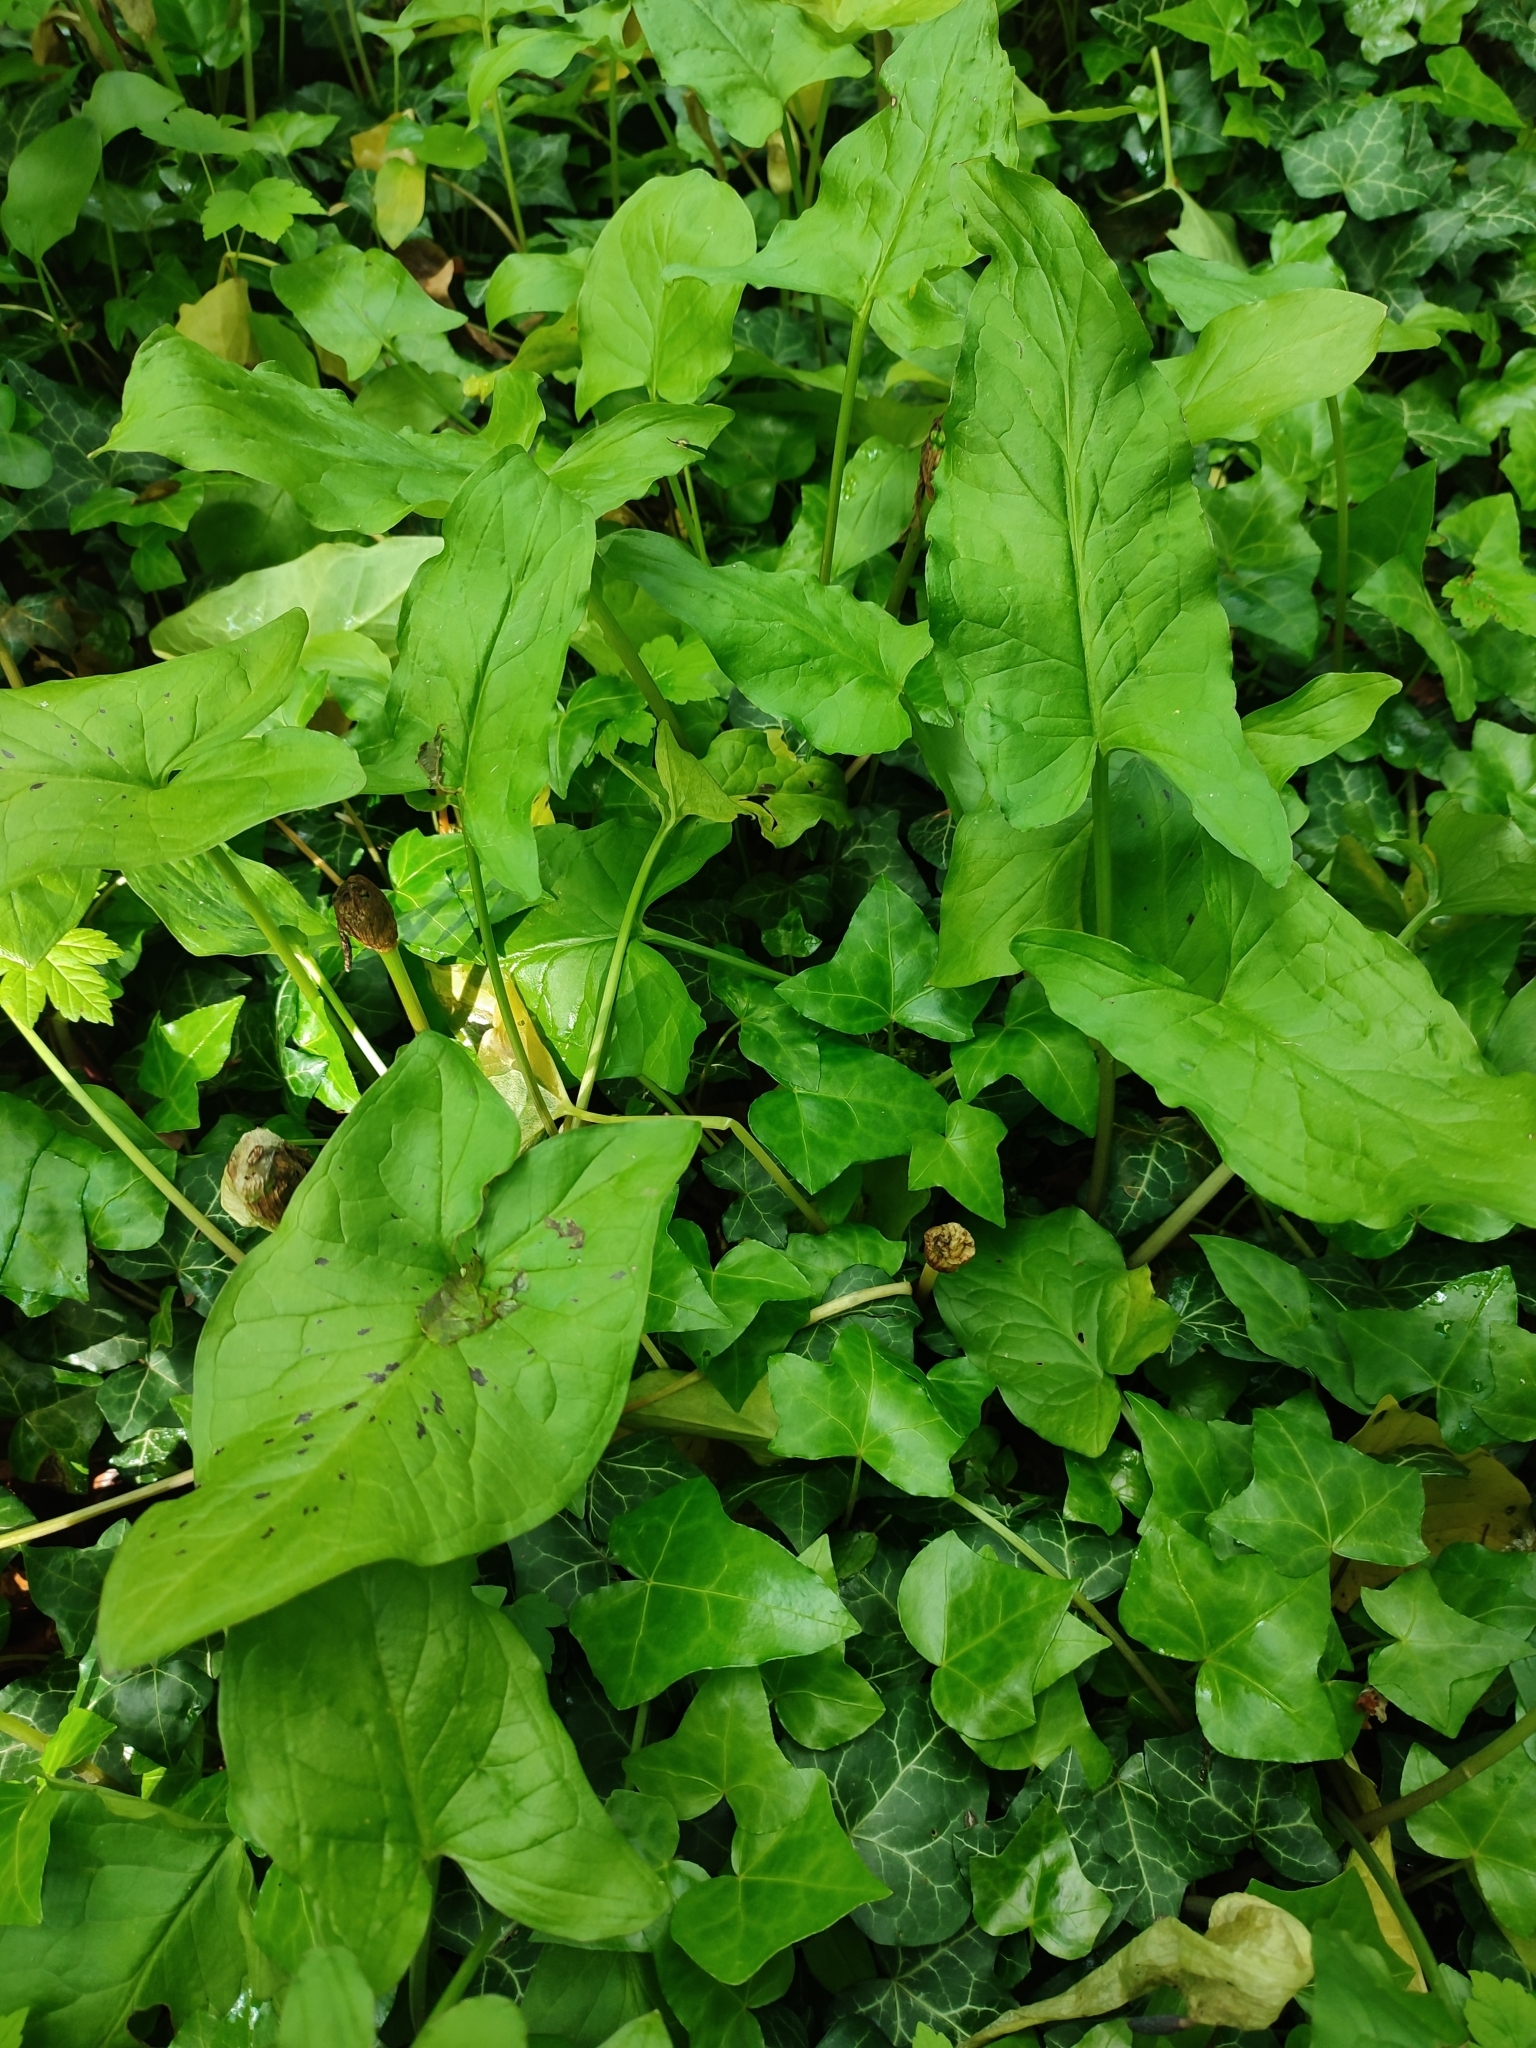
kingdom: Plantae
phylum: Tracheophyta
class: Liliopsida
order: Alismatales
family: Araceae
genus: Arum
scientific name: Arum maculatum
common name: Lords-and-ladies
